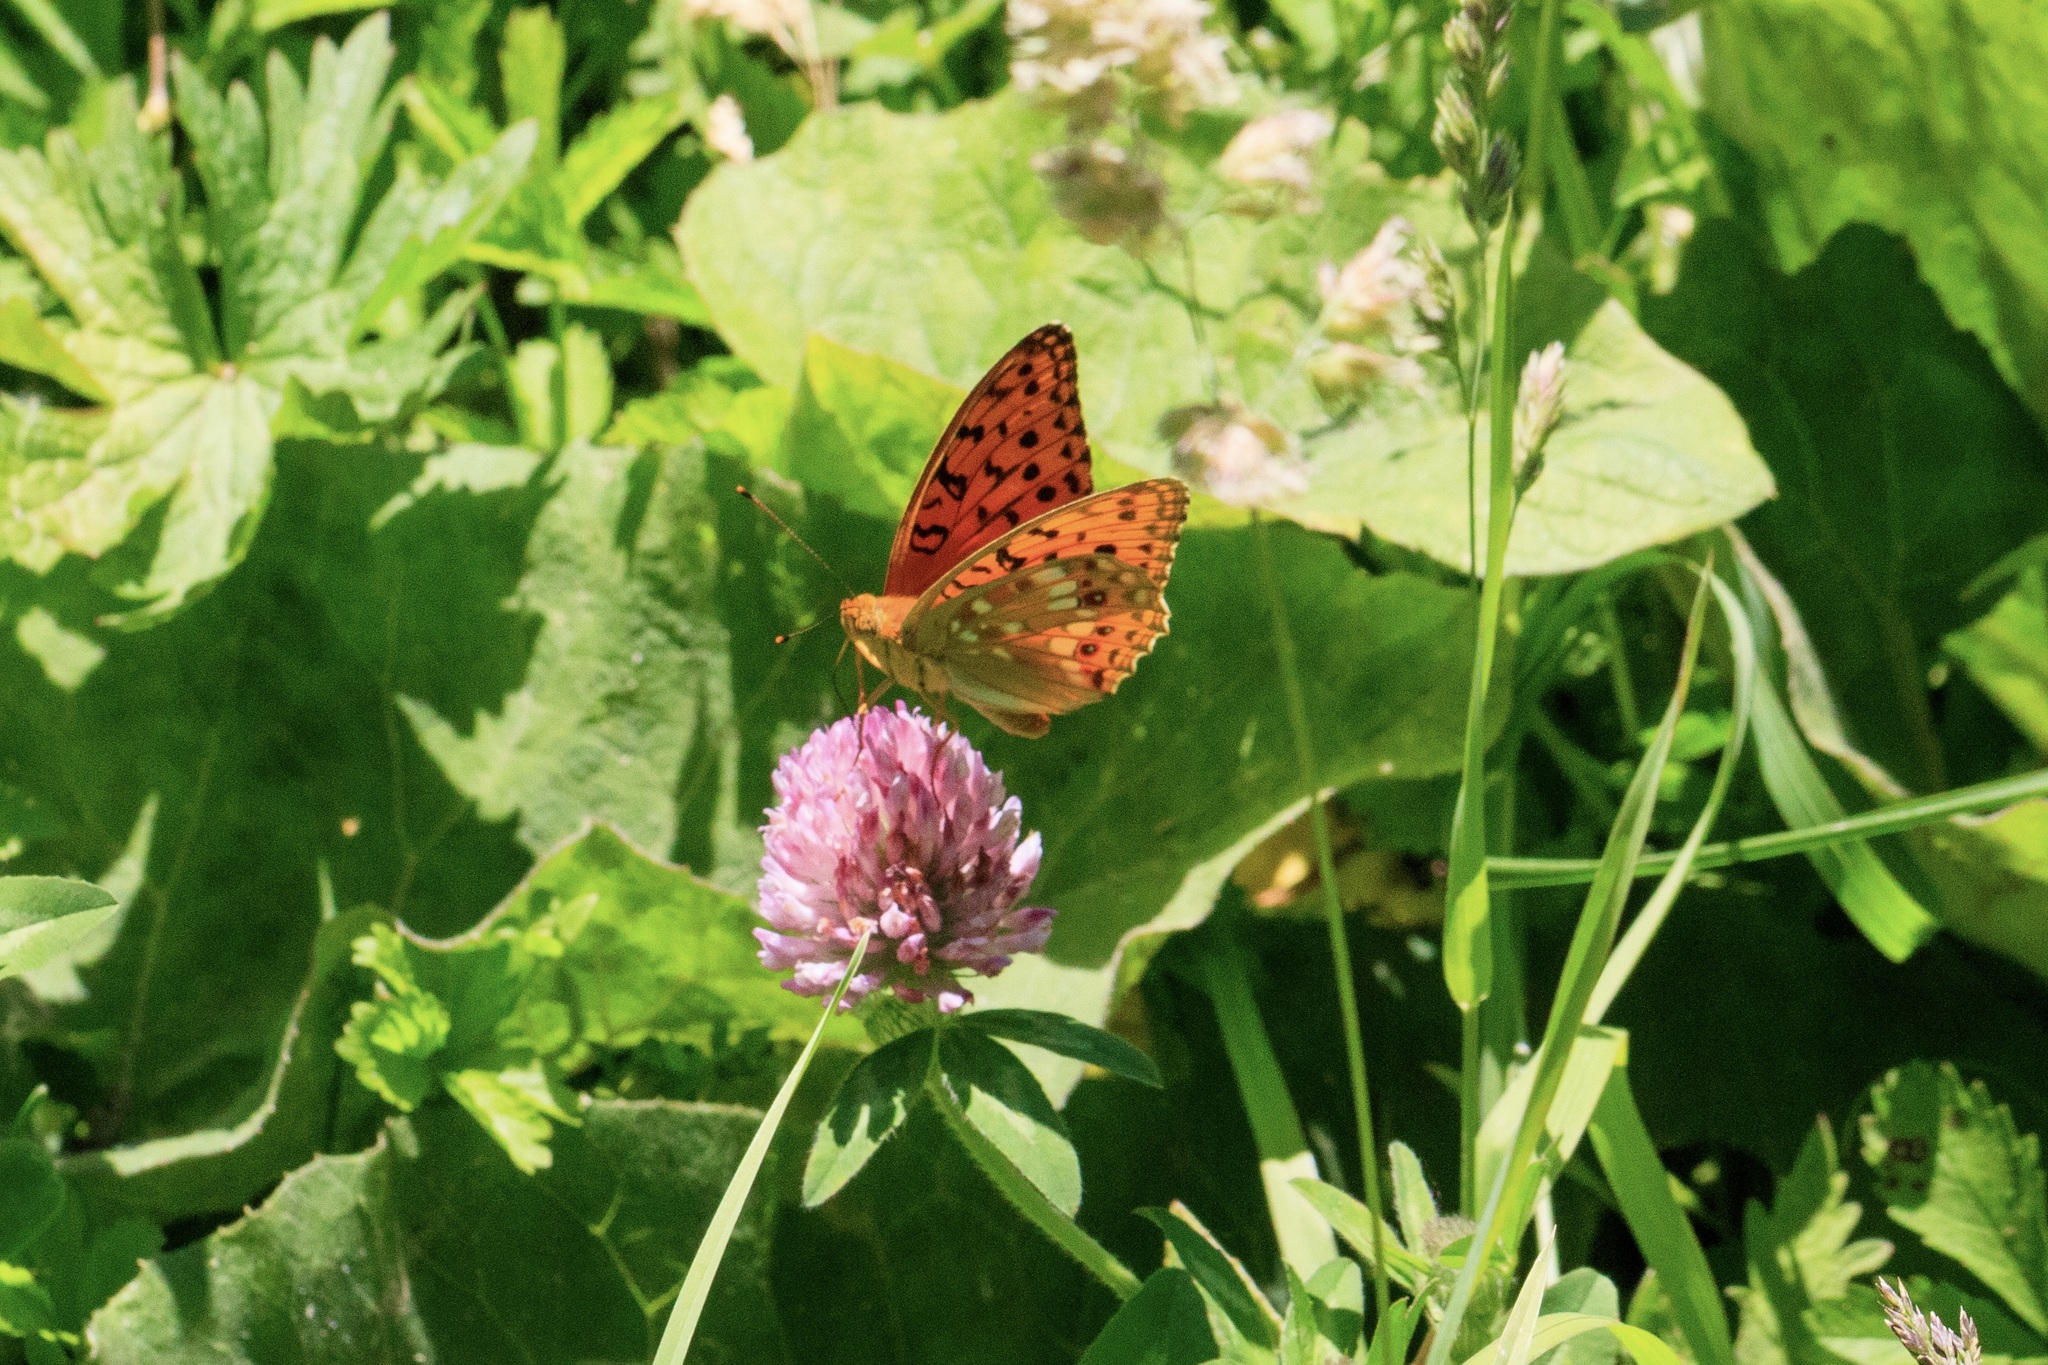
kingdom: Animalia
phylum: Arthropoda
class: Insecta
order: Lepidoptera
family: Nymphalidae
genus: Fabriciana
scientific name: Fabriciana adippe
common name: High brown fritillary
